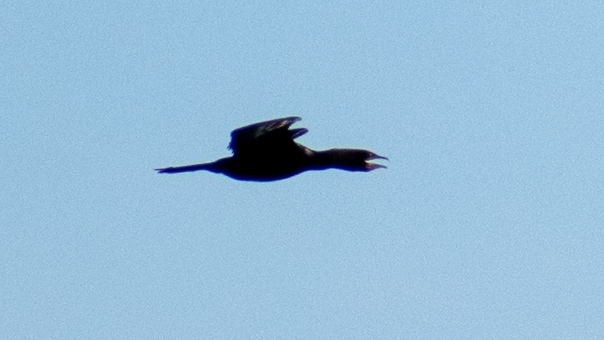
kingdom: Animalia
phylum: Chordata
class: Aves
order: Suliformes
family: Phalacrocoracidae
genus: Microcarbo
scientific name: Microcarbo pygmaeus
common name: Pygmy cormorant
